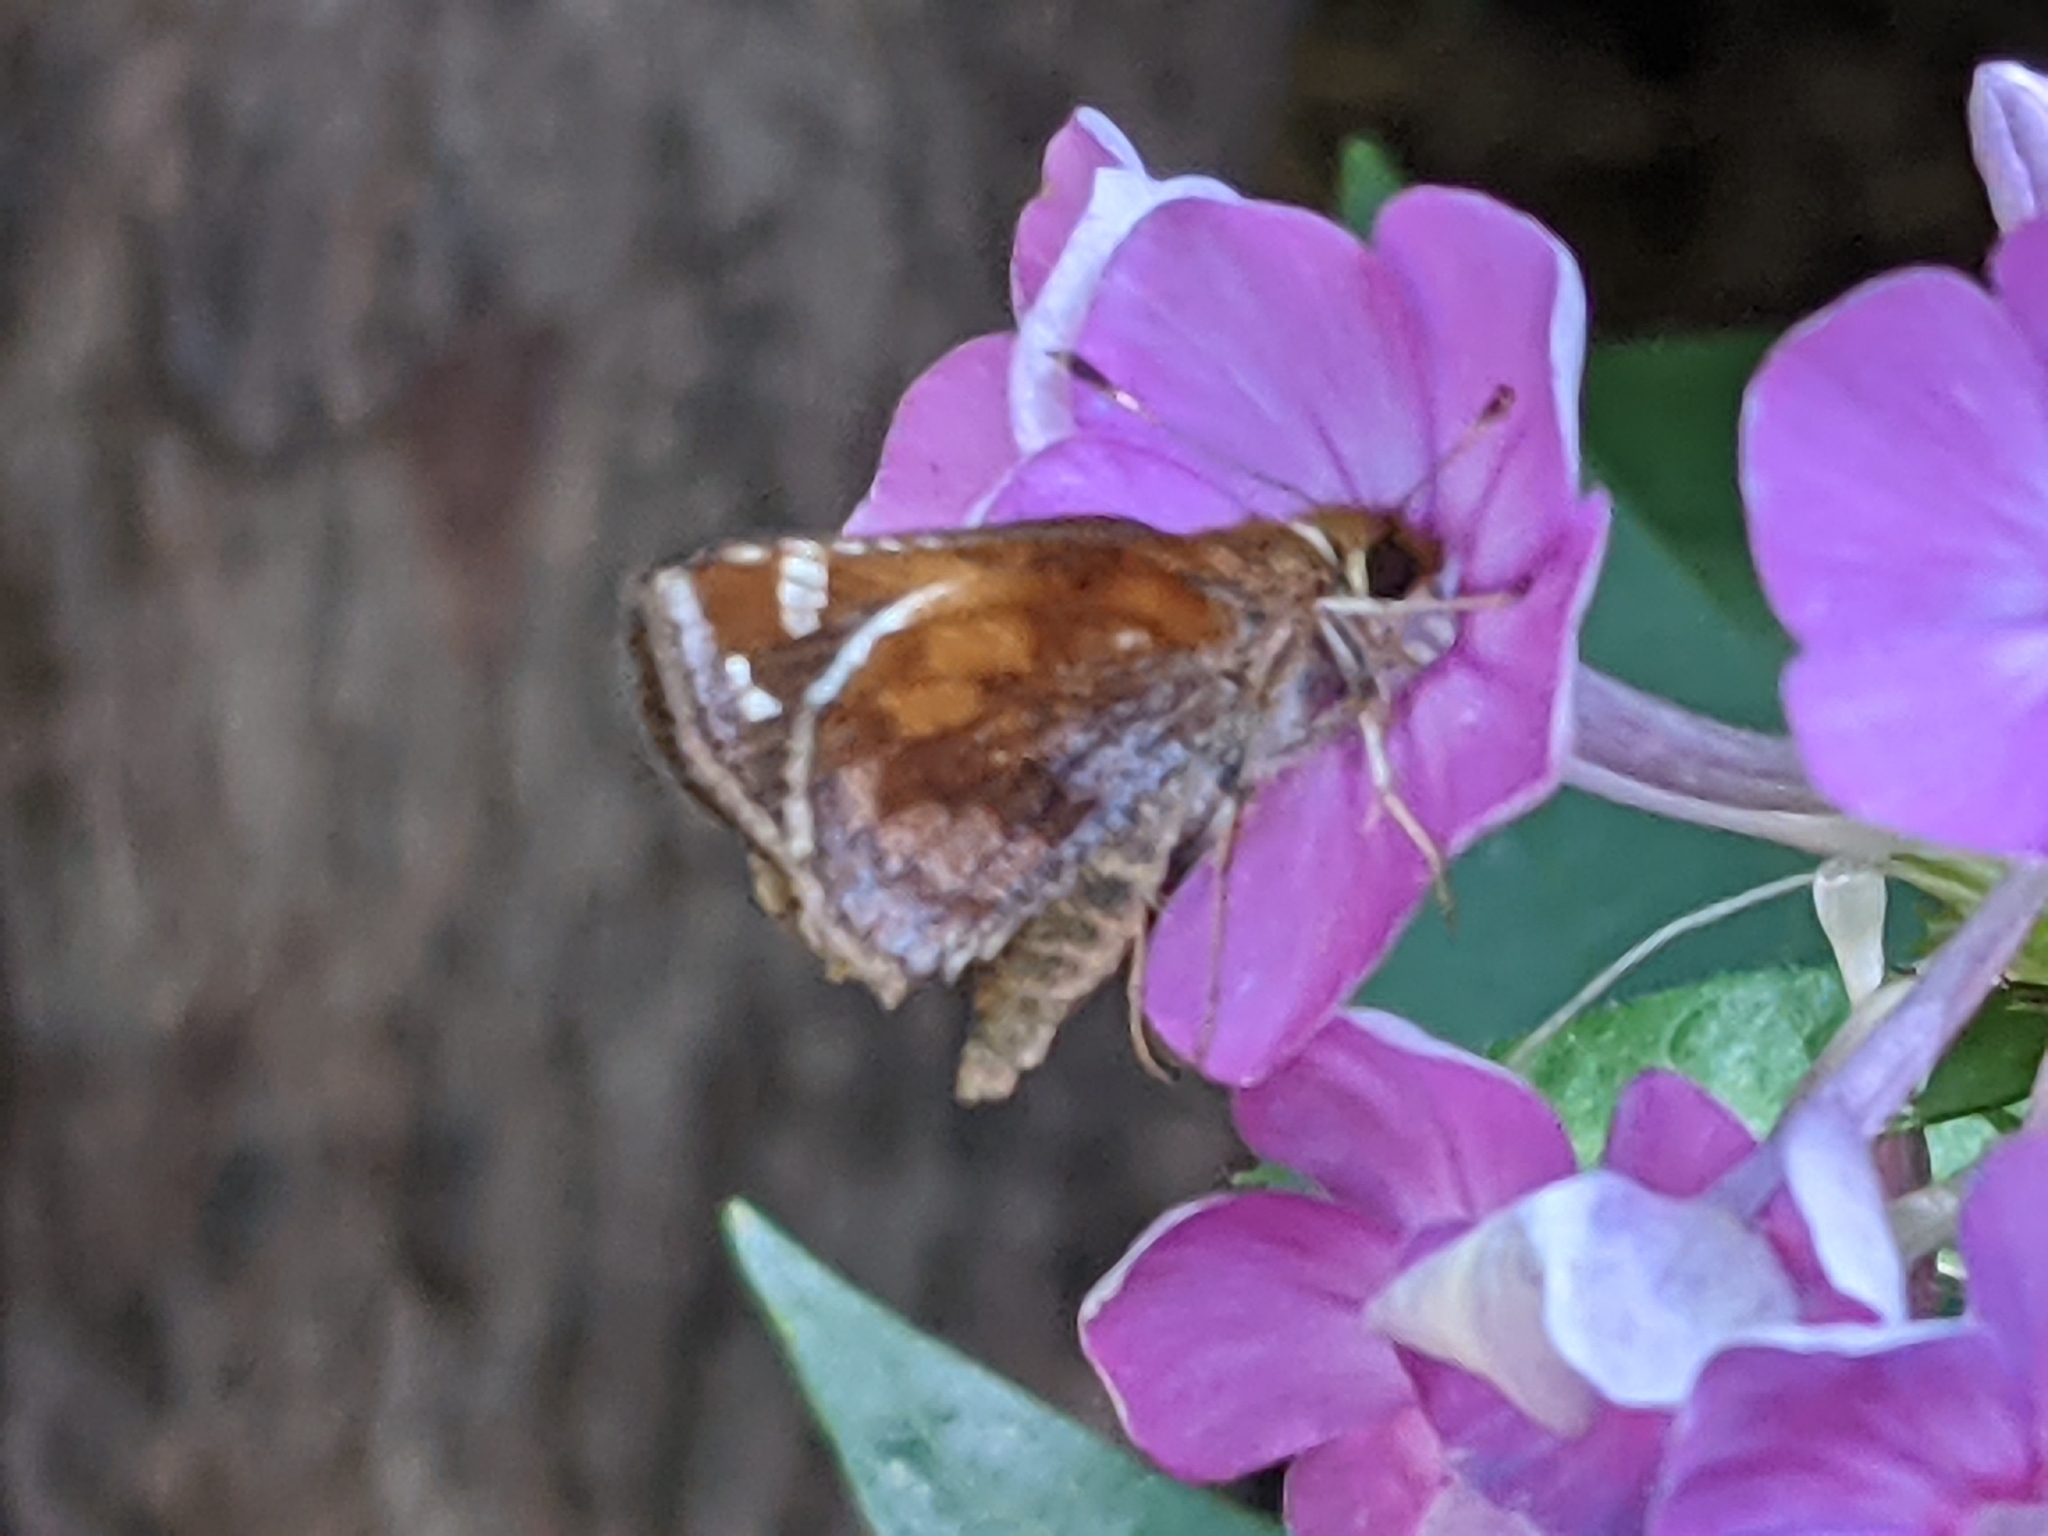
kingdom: Animalia
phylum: Arthropoda
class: Insecta
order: Lepidoptera
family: Hesperiidae
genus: Lon
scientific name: Lon zabulon
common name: Zabulon skipper
